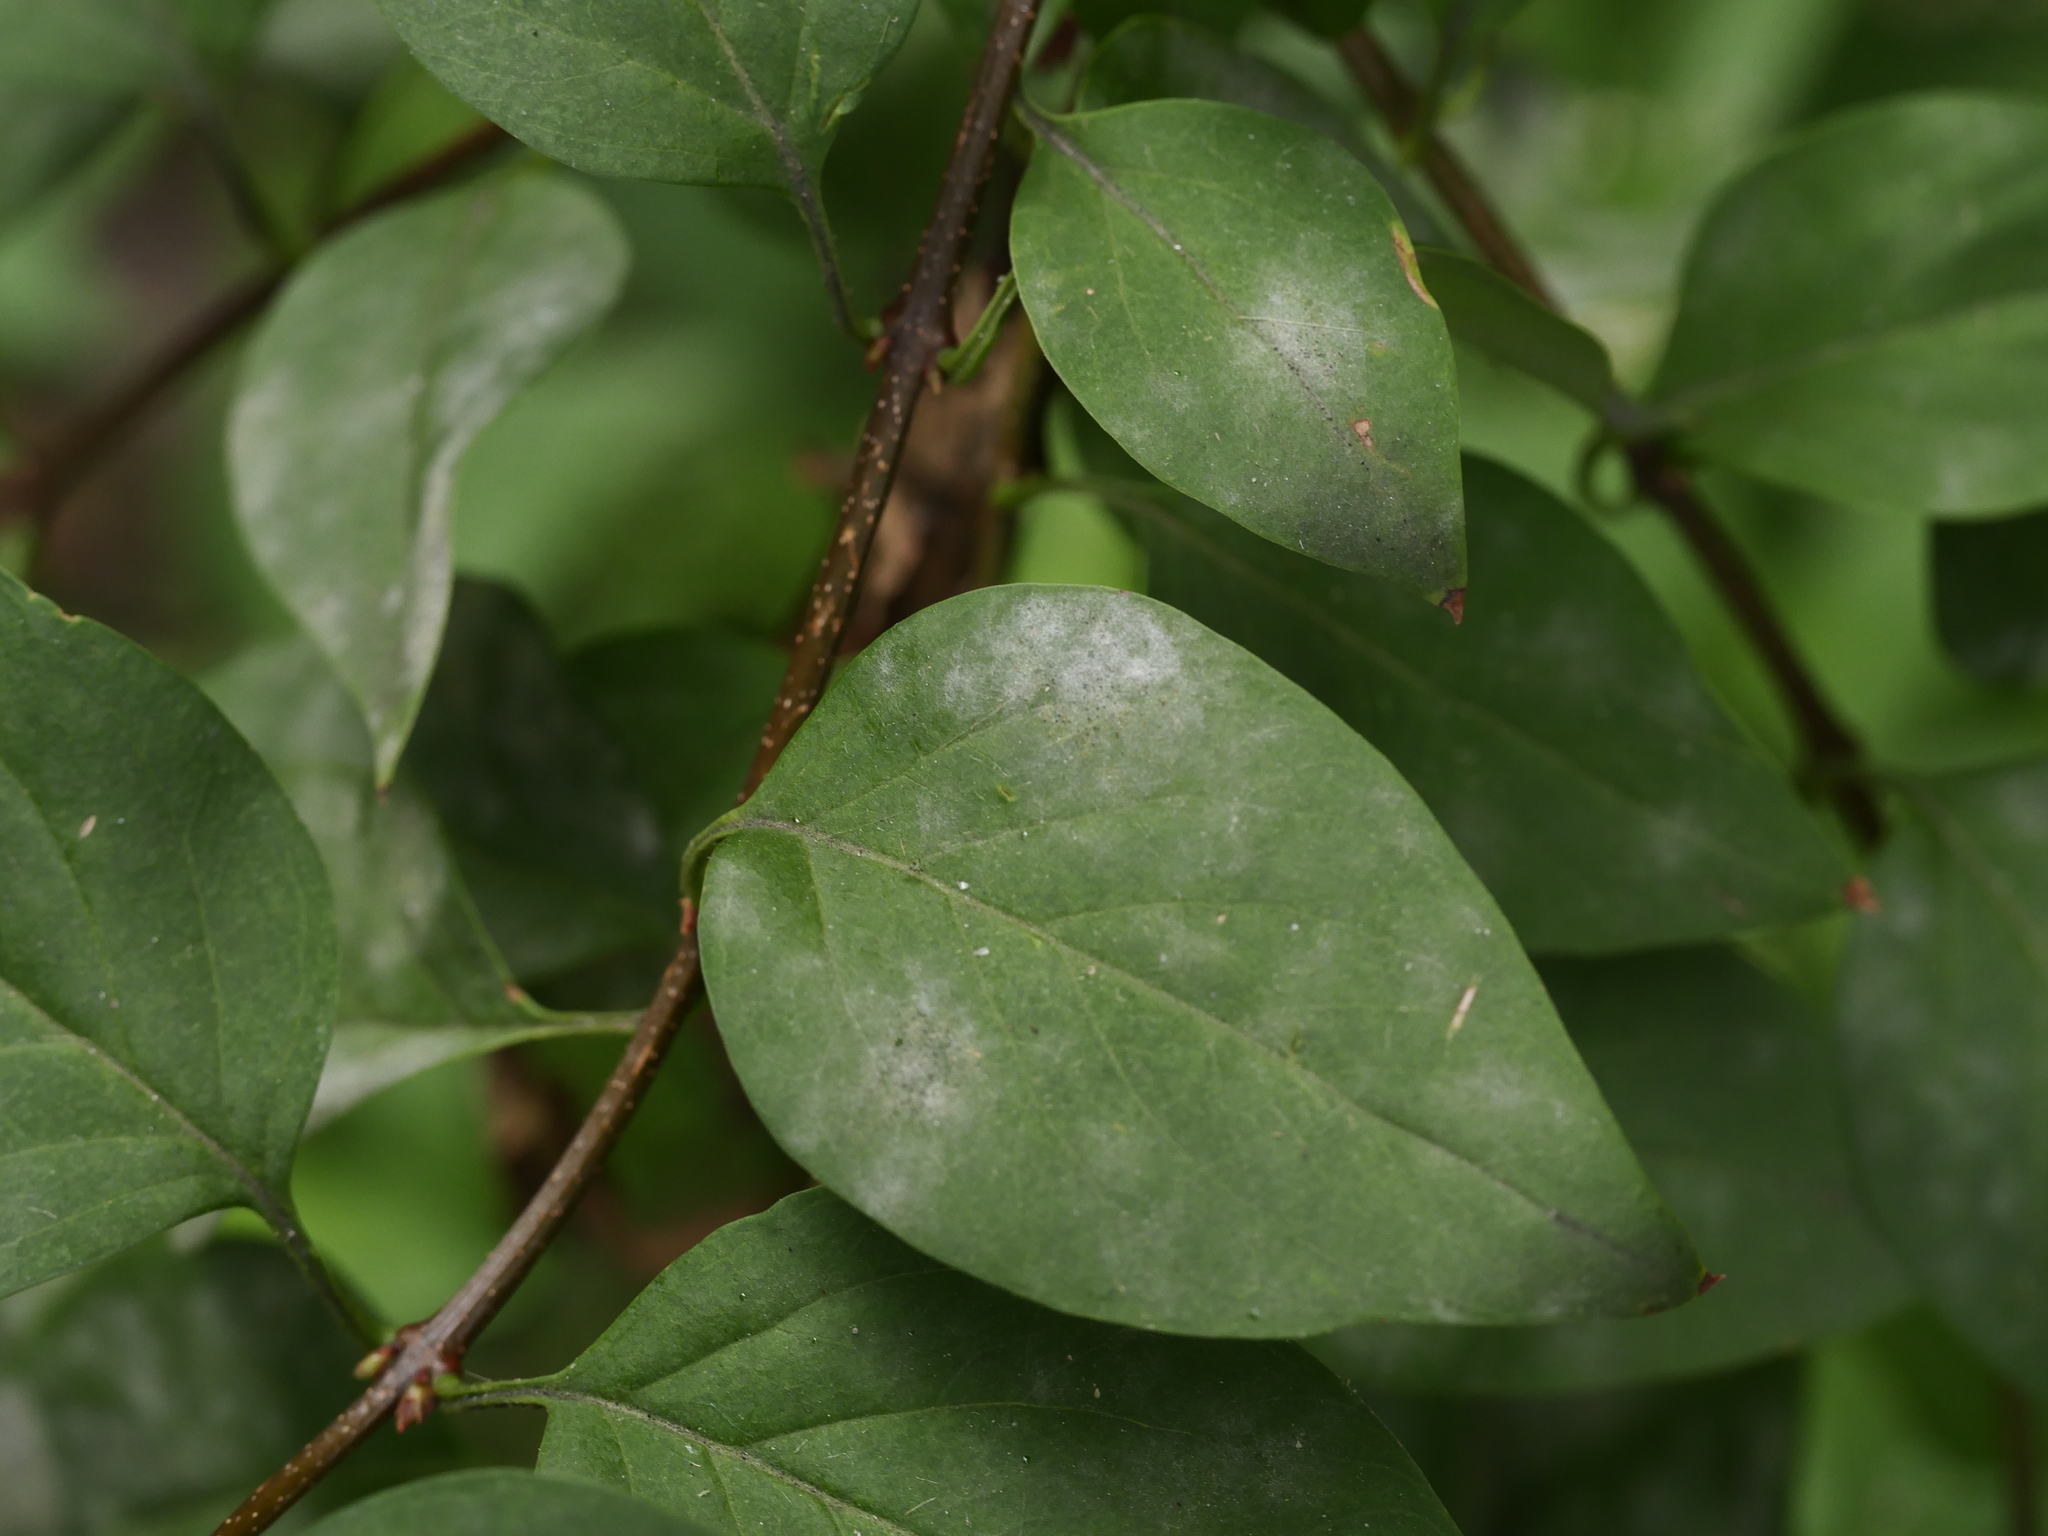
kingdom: Fungi
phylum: Ascomycota
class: Leotiomycetes
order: Helotiales
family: Erysiphaceae
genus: Erysiphe
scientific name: Erysiphe lonicerae
